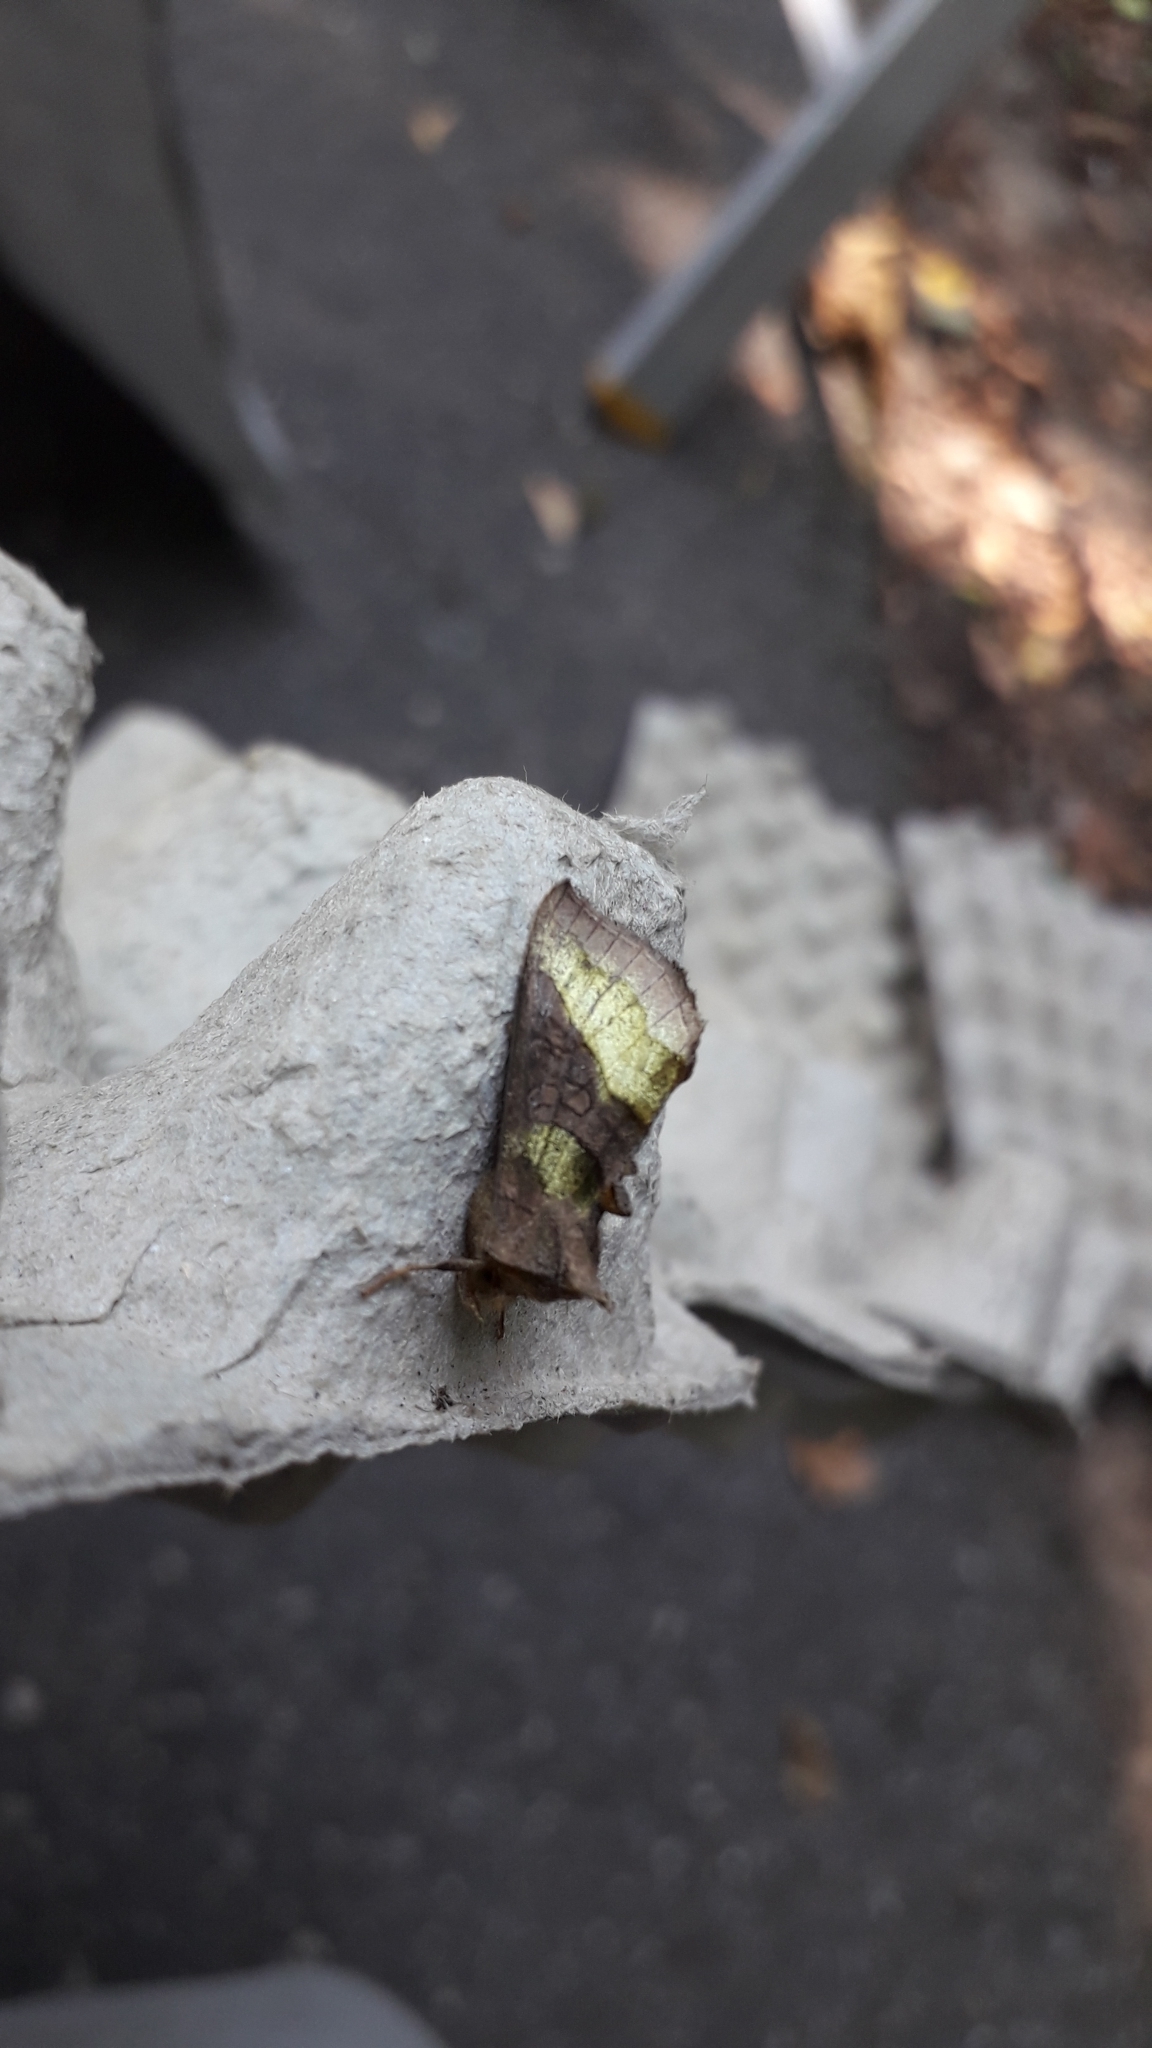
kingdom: Animalia
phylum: Arthropoda
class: Insecta
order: Lepidoptera
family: Noctuidae
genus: Diachrysia
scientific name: Diachrysia
